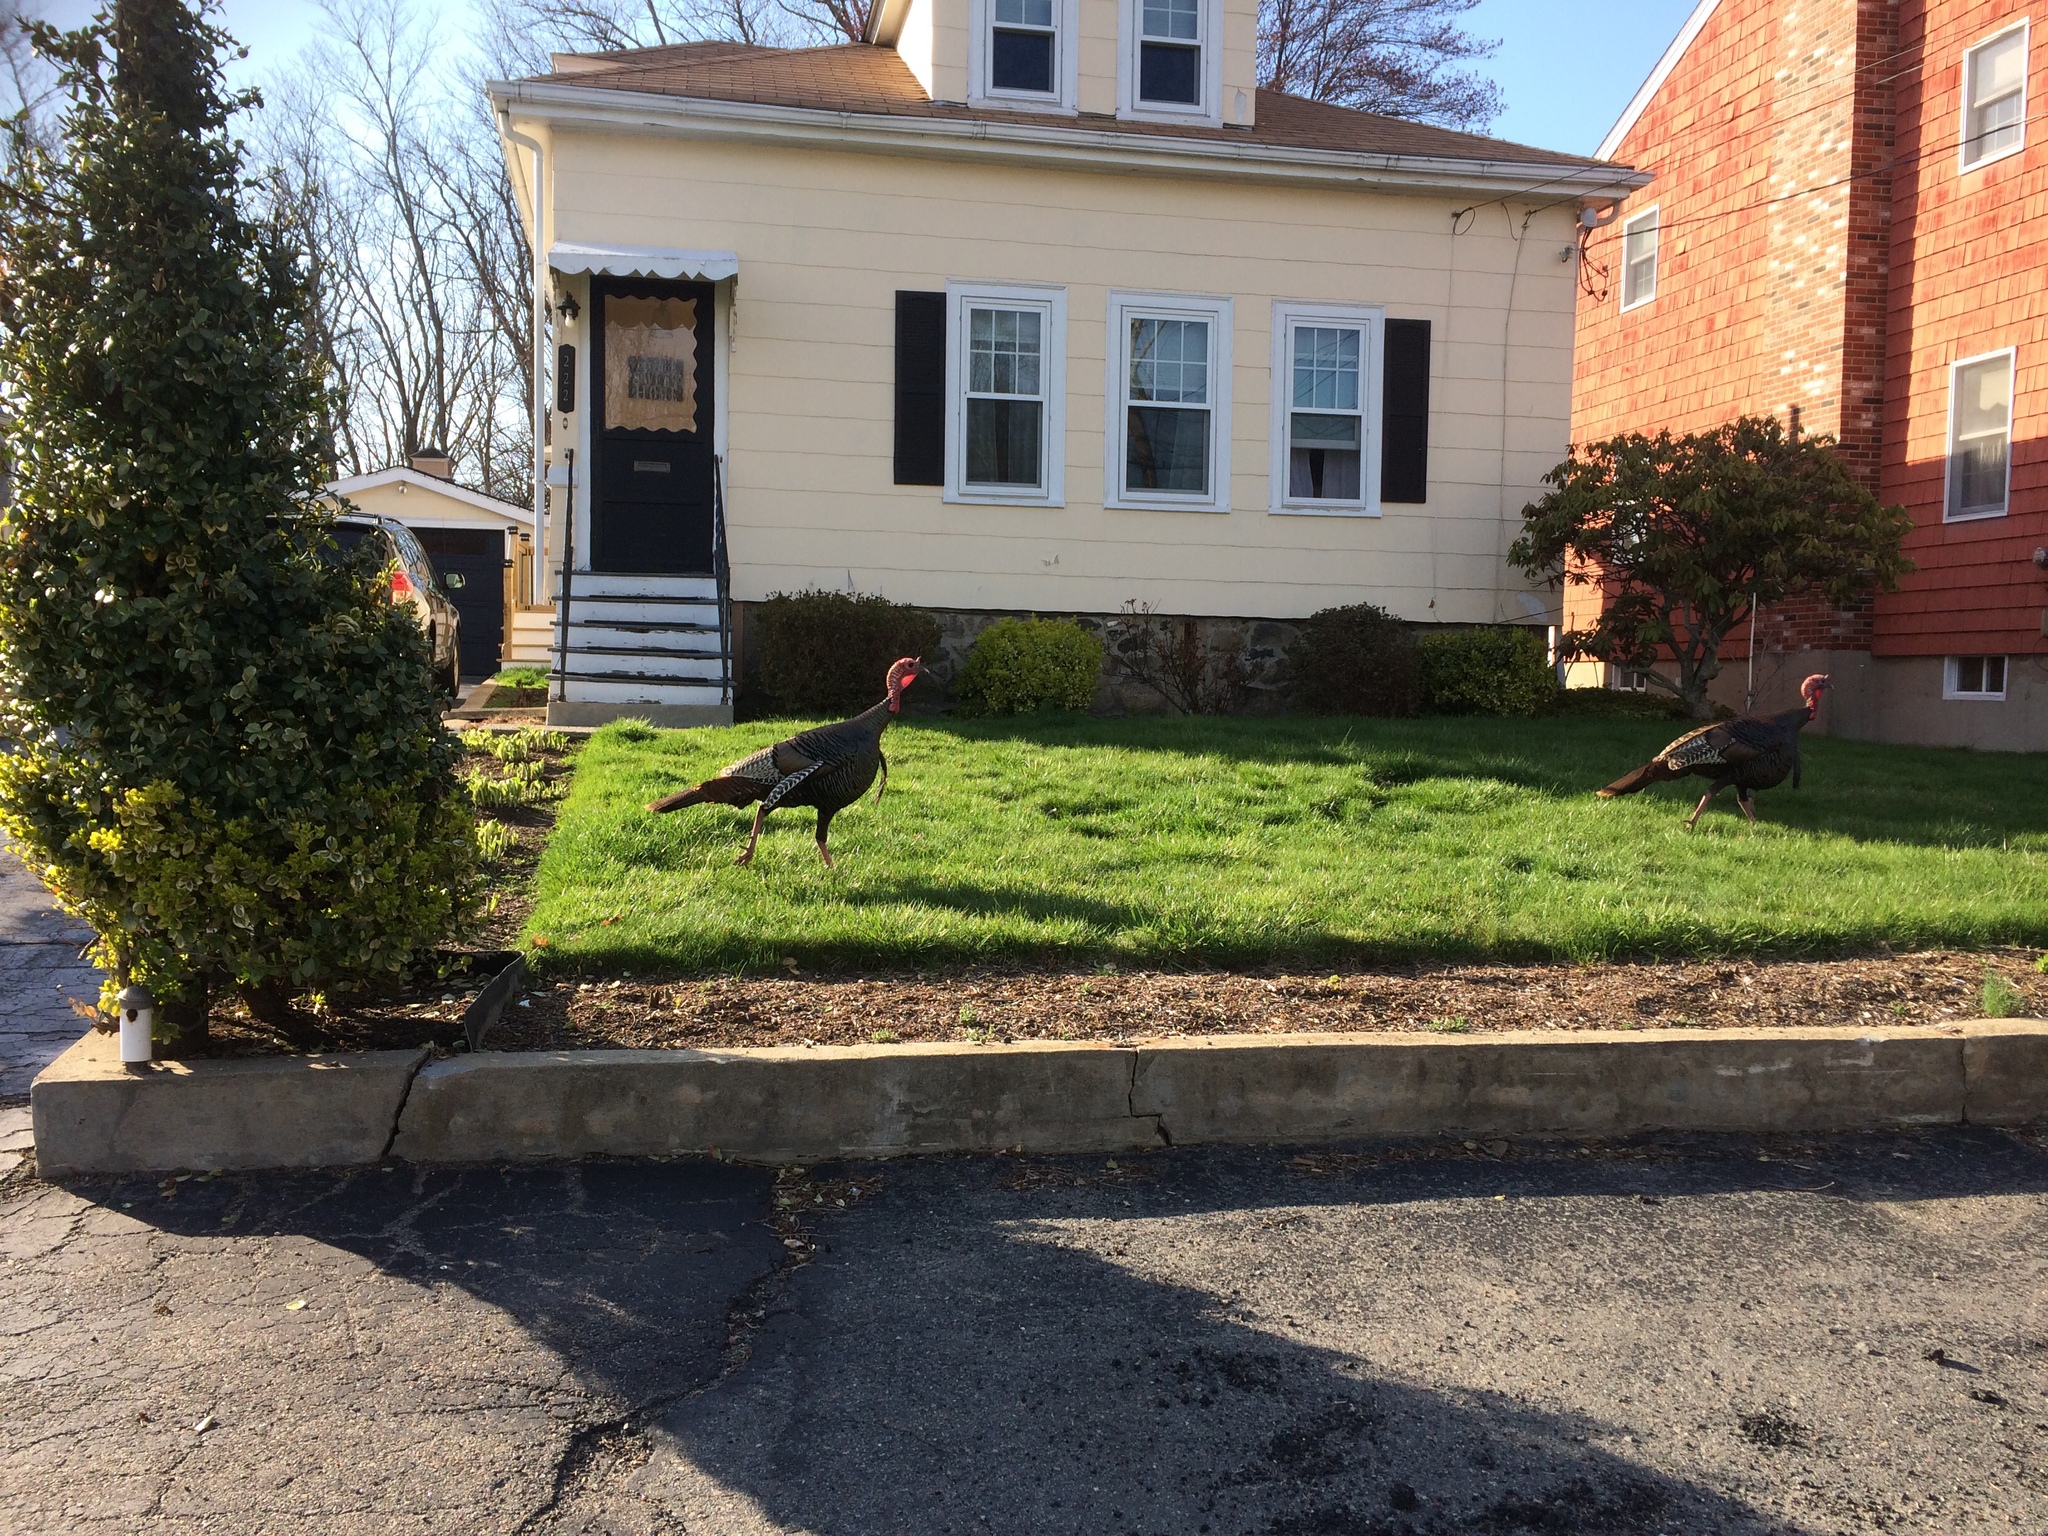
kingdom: Animalia
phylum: Chordata
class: Aves
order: Galliformes
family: Phasianidae
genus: Meleagris
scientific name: Meleagris gallopavo
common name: Wild turkey
